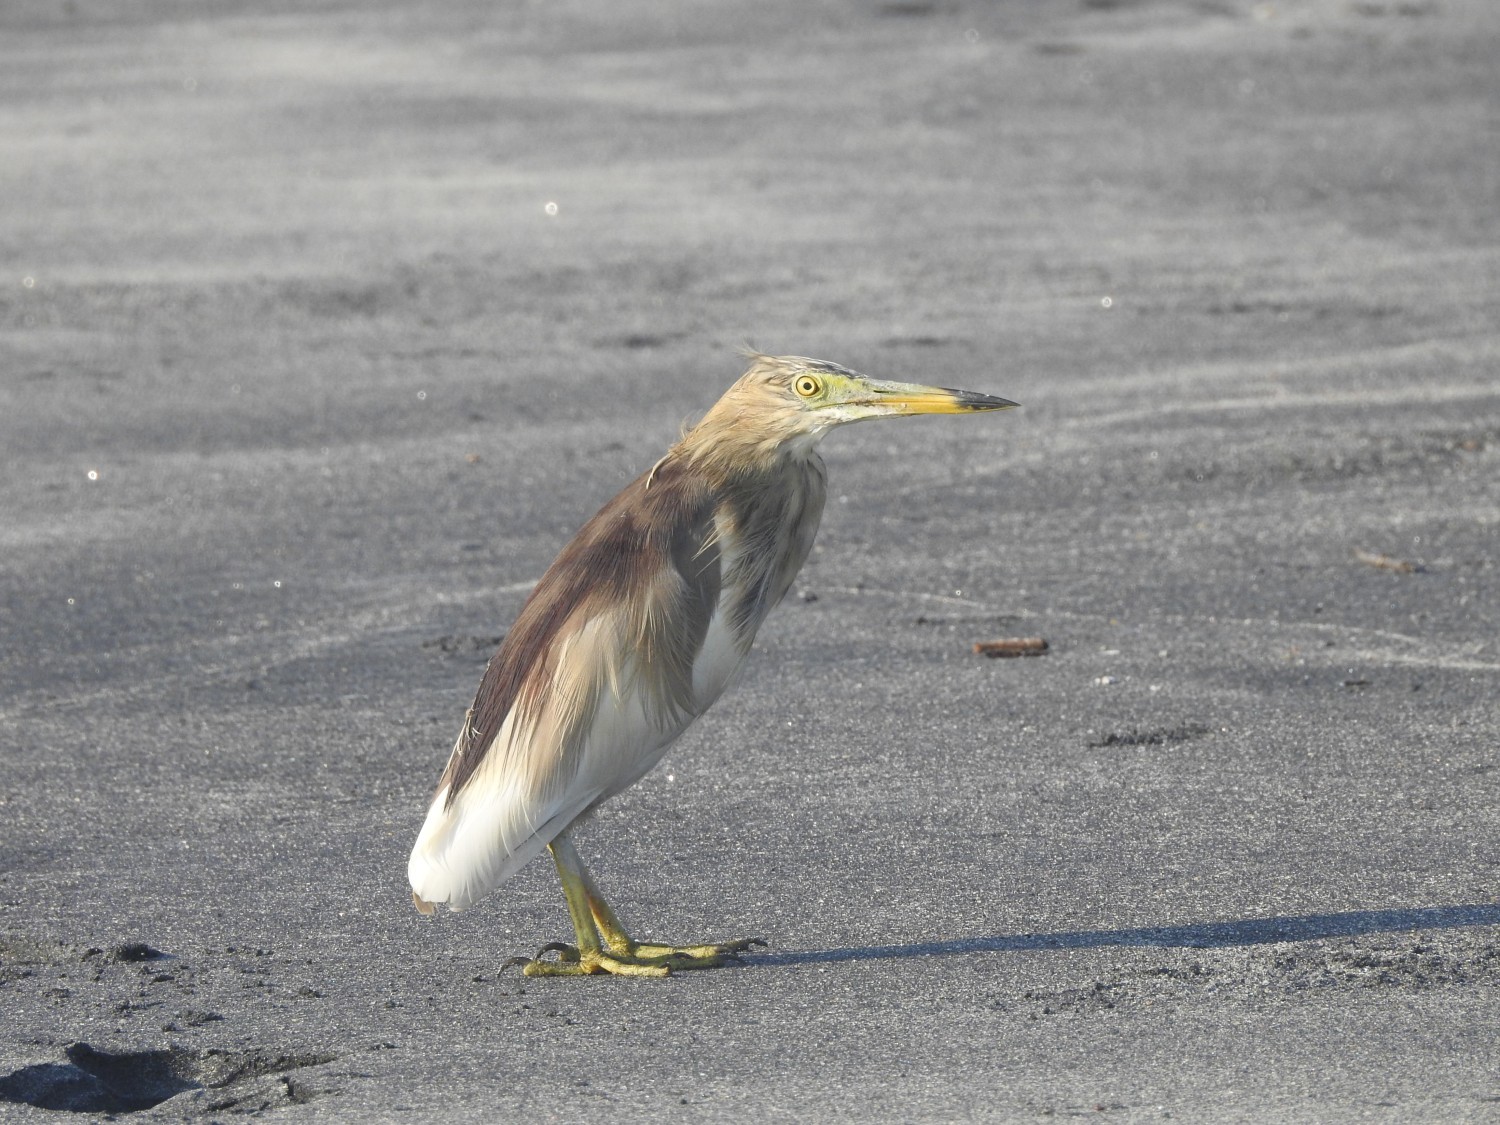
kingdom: Animalia
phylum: Chordata
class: Aves
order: Pelecaniformes
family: Ardeidae
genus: Ardeola
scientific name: Ardeola grayii
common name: Indian pond heron
